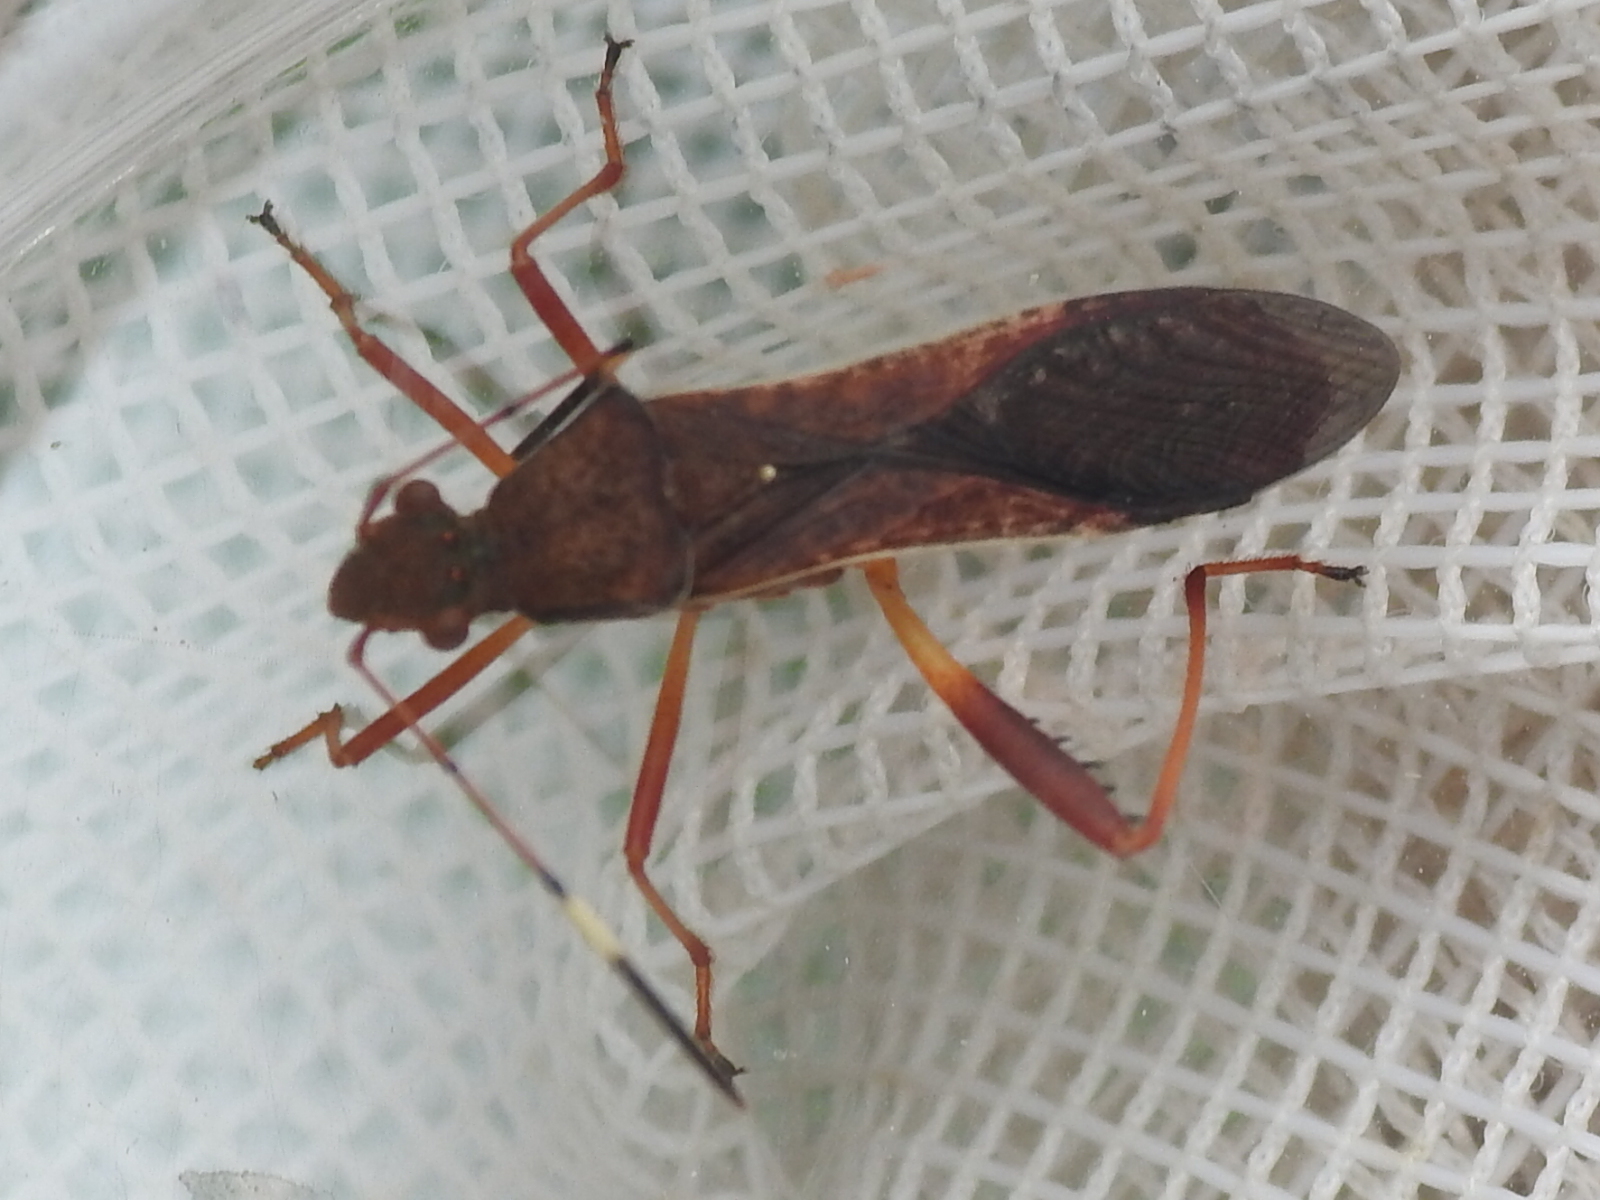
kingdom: Animalia
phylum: Arthropoda
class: Insecta
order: Hemiptera
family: Alydidae
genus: Megalotomus
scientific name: Megalotomus quinquespinosus
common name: Lupine bug
